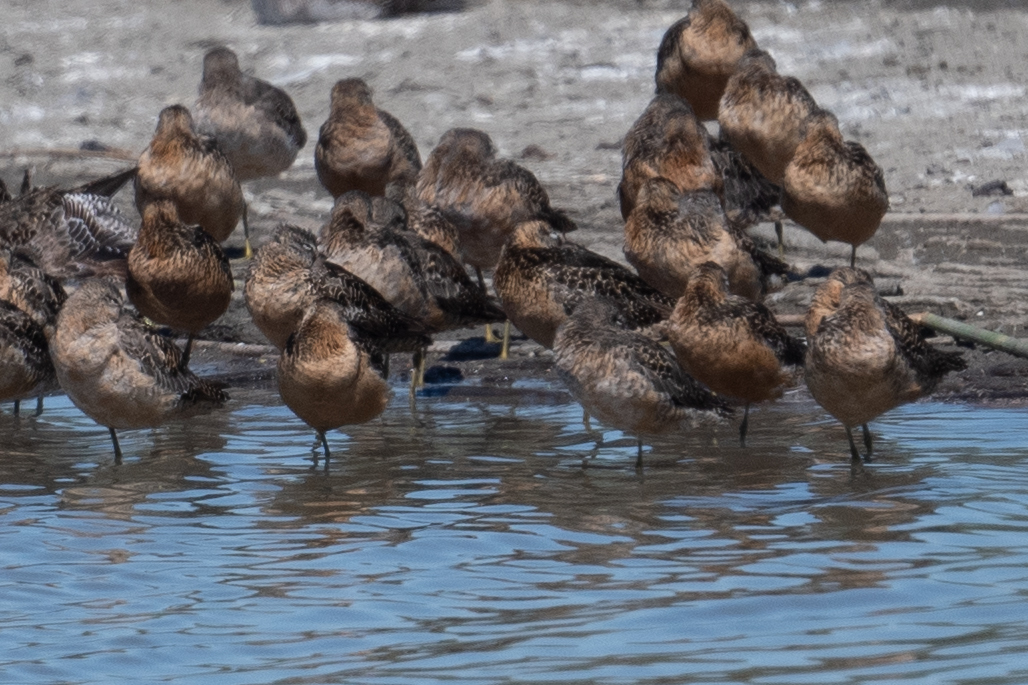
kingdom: Animalia
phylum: Chordata
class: Aves
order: Charadriiformes
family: Scolopacidae
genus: Limnodromus
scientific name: Limnodromus scolopaceus
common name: Long-billed dowitcher
